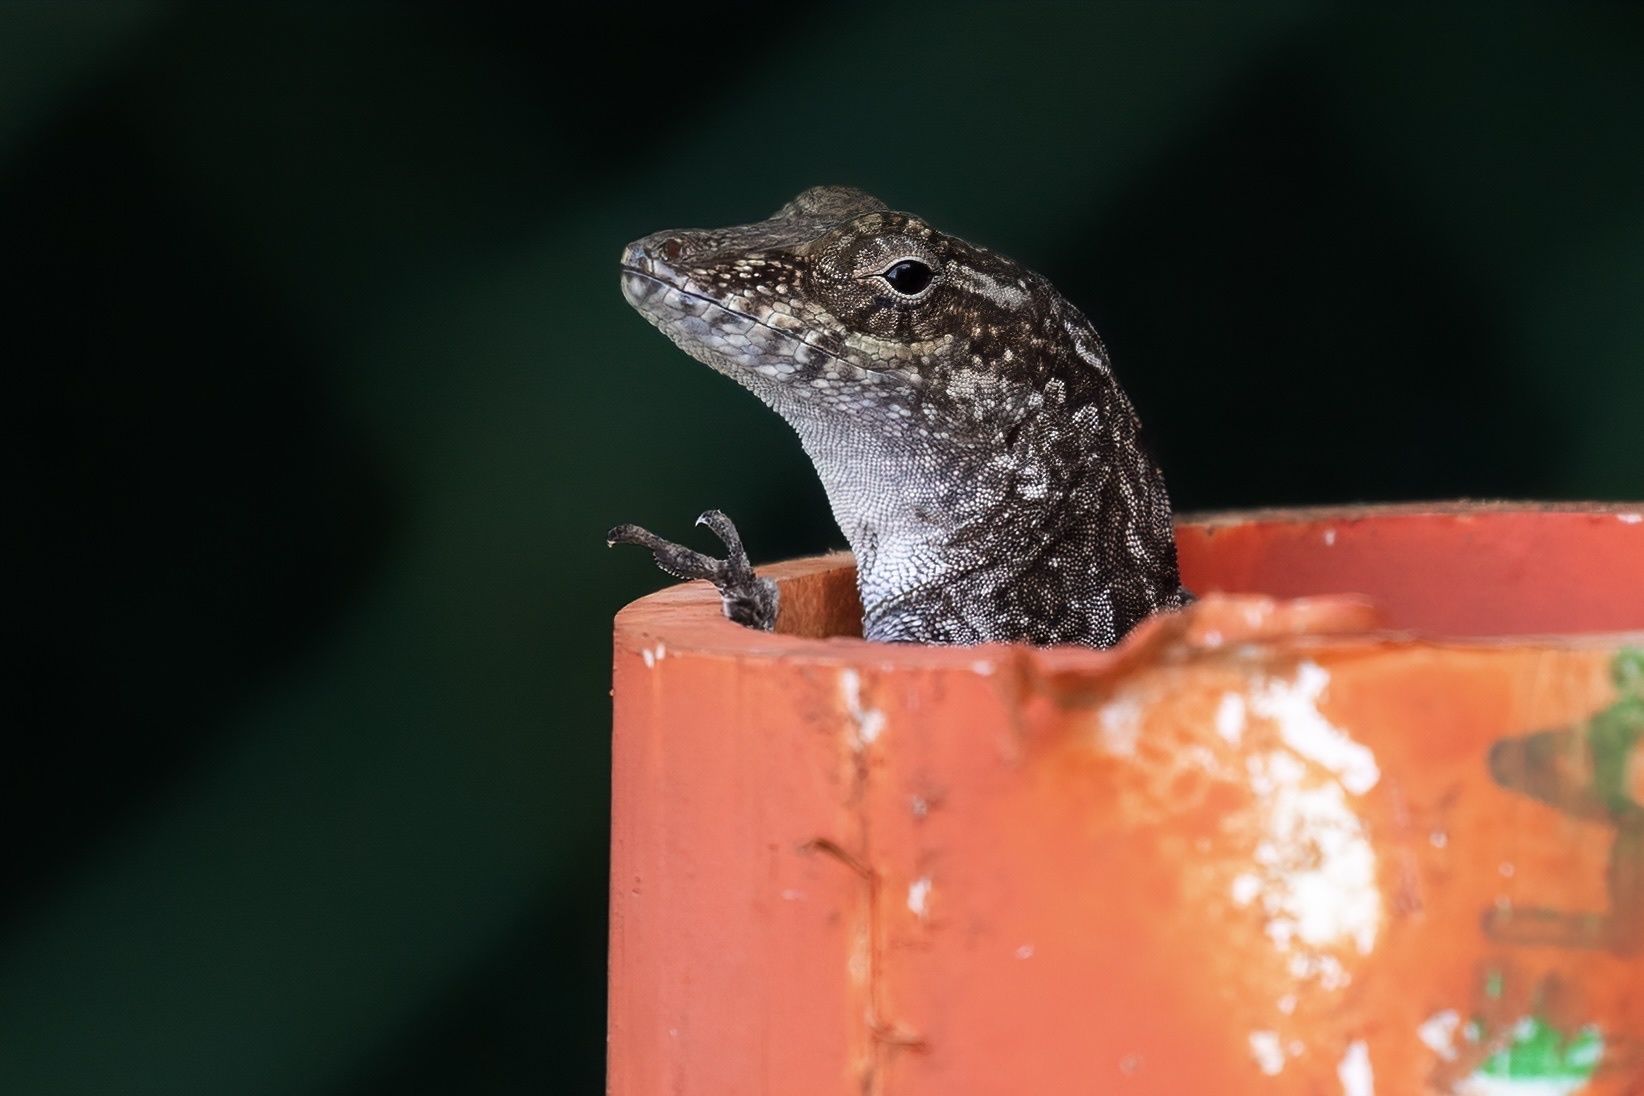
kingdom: Animalia
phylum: Chordata
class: Squamata
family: Dactyloidae
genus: Anolis
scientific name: Anolis cristatellus
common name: Crested anole
